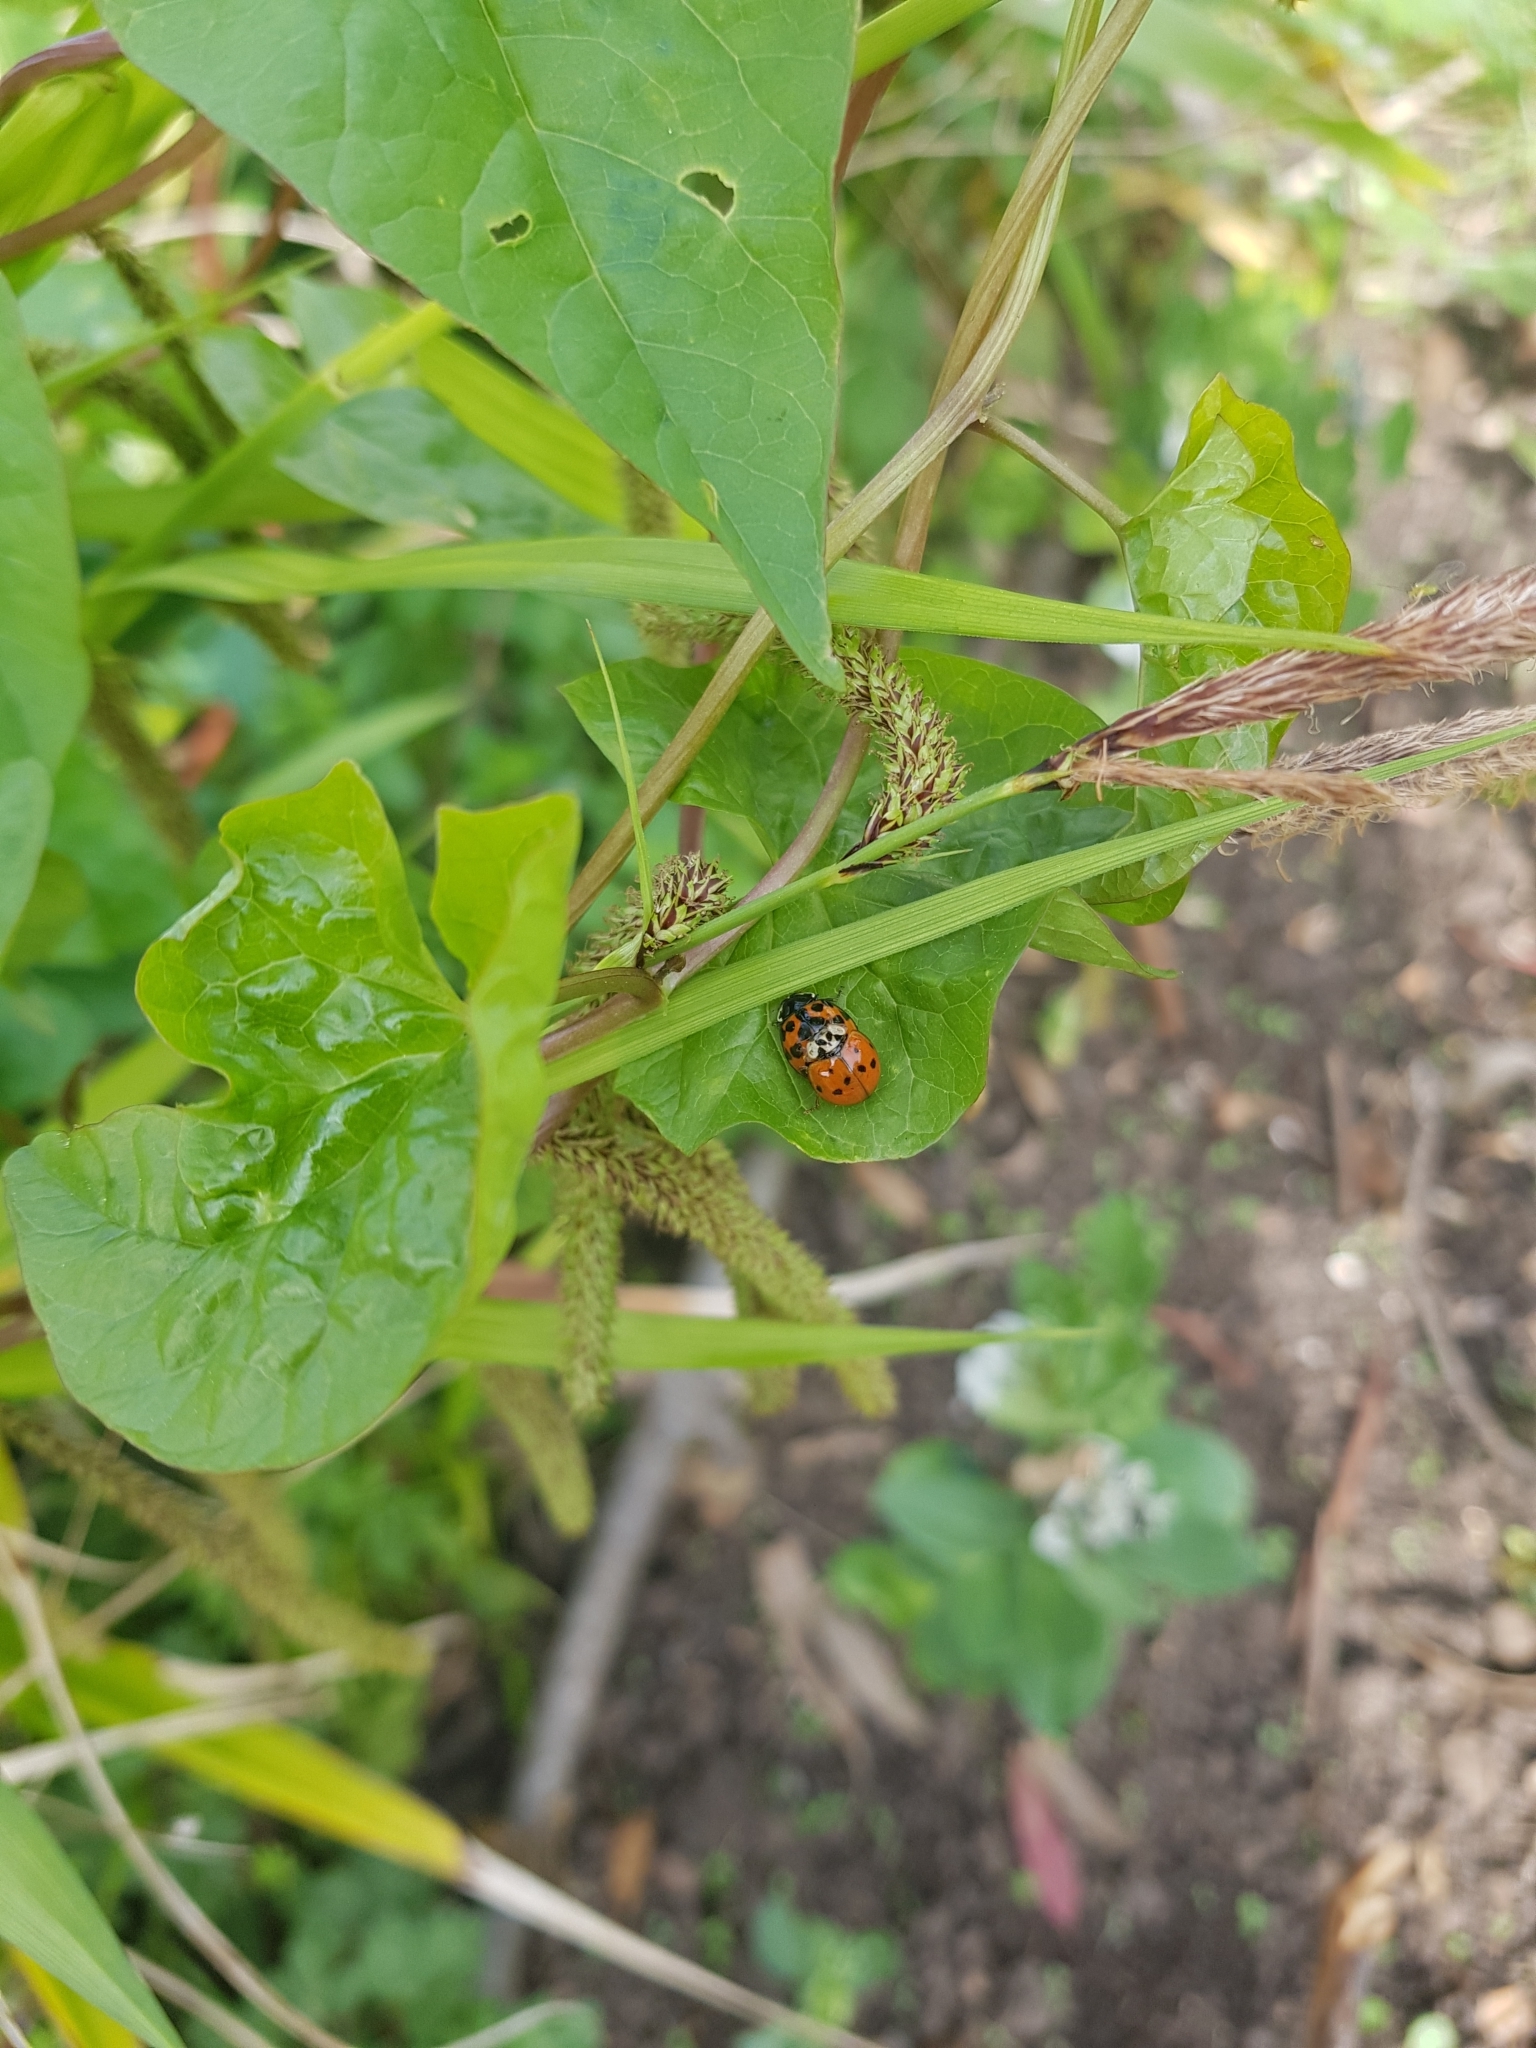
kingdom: Animalia
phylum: Arthropoda
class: Insecta
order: Coleoptera
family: Coccinellidae
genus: Harmonia
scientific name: Harmonia axyridis
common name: Harlequin ladybird
